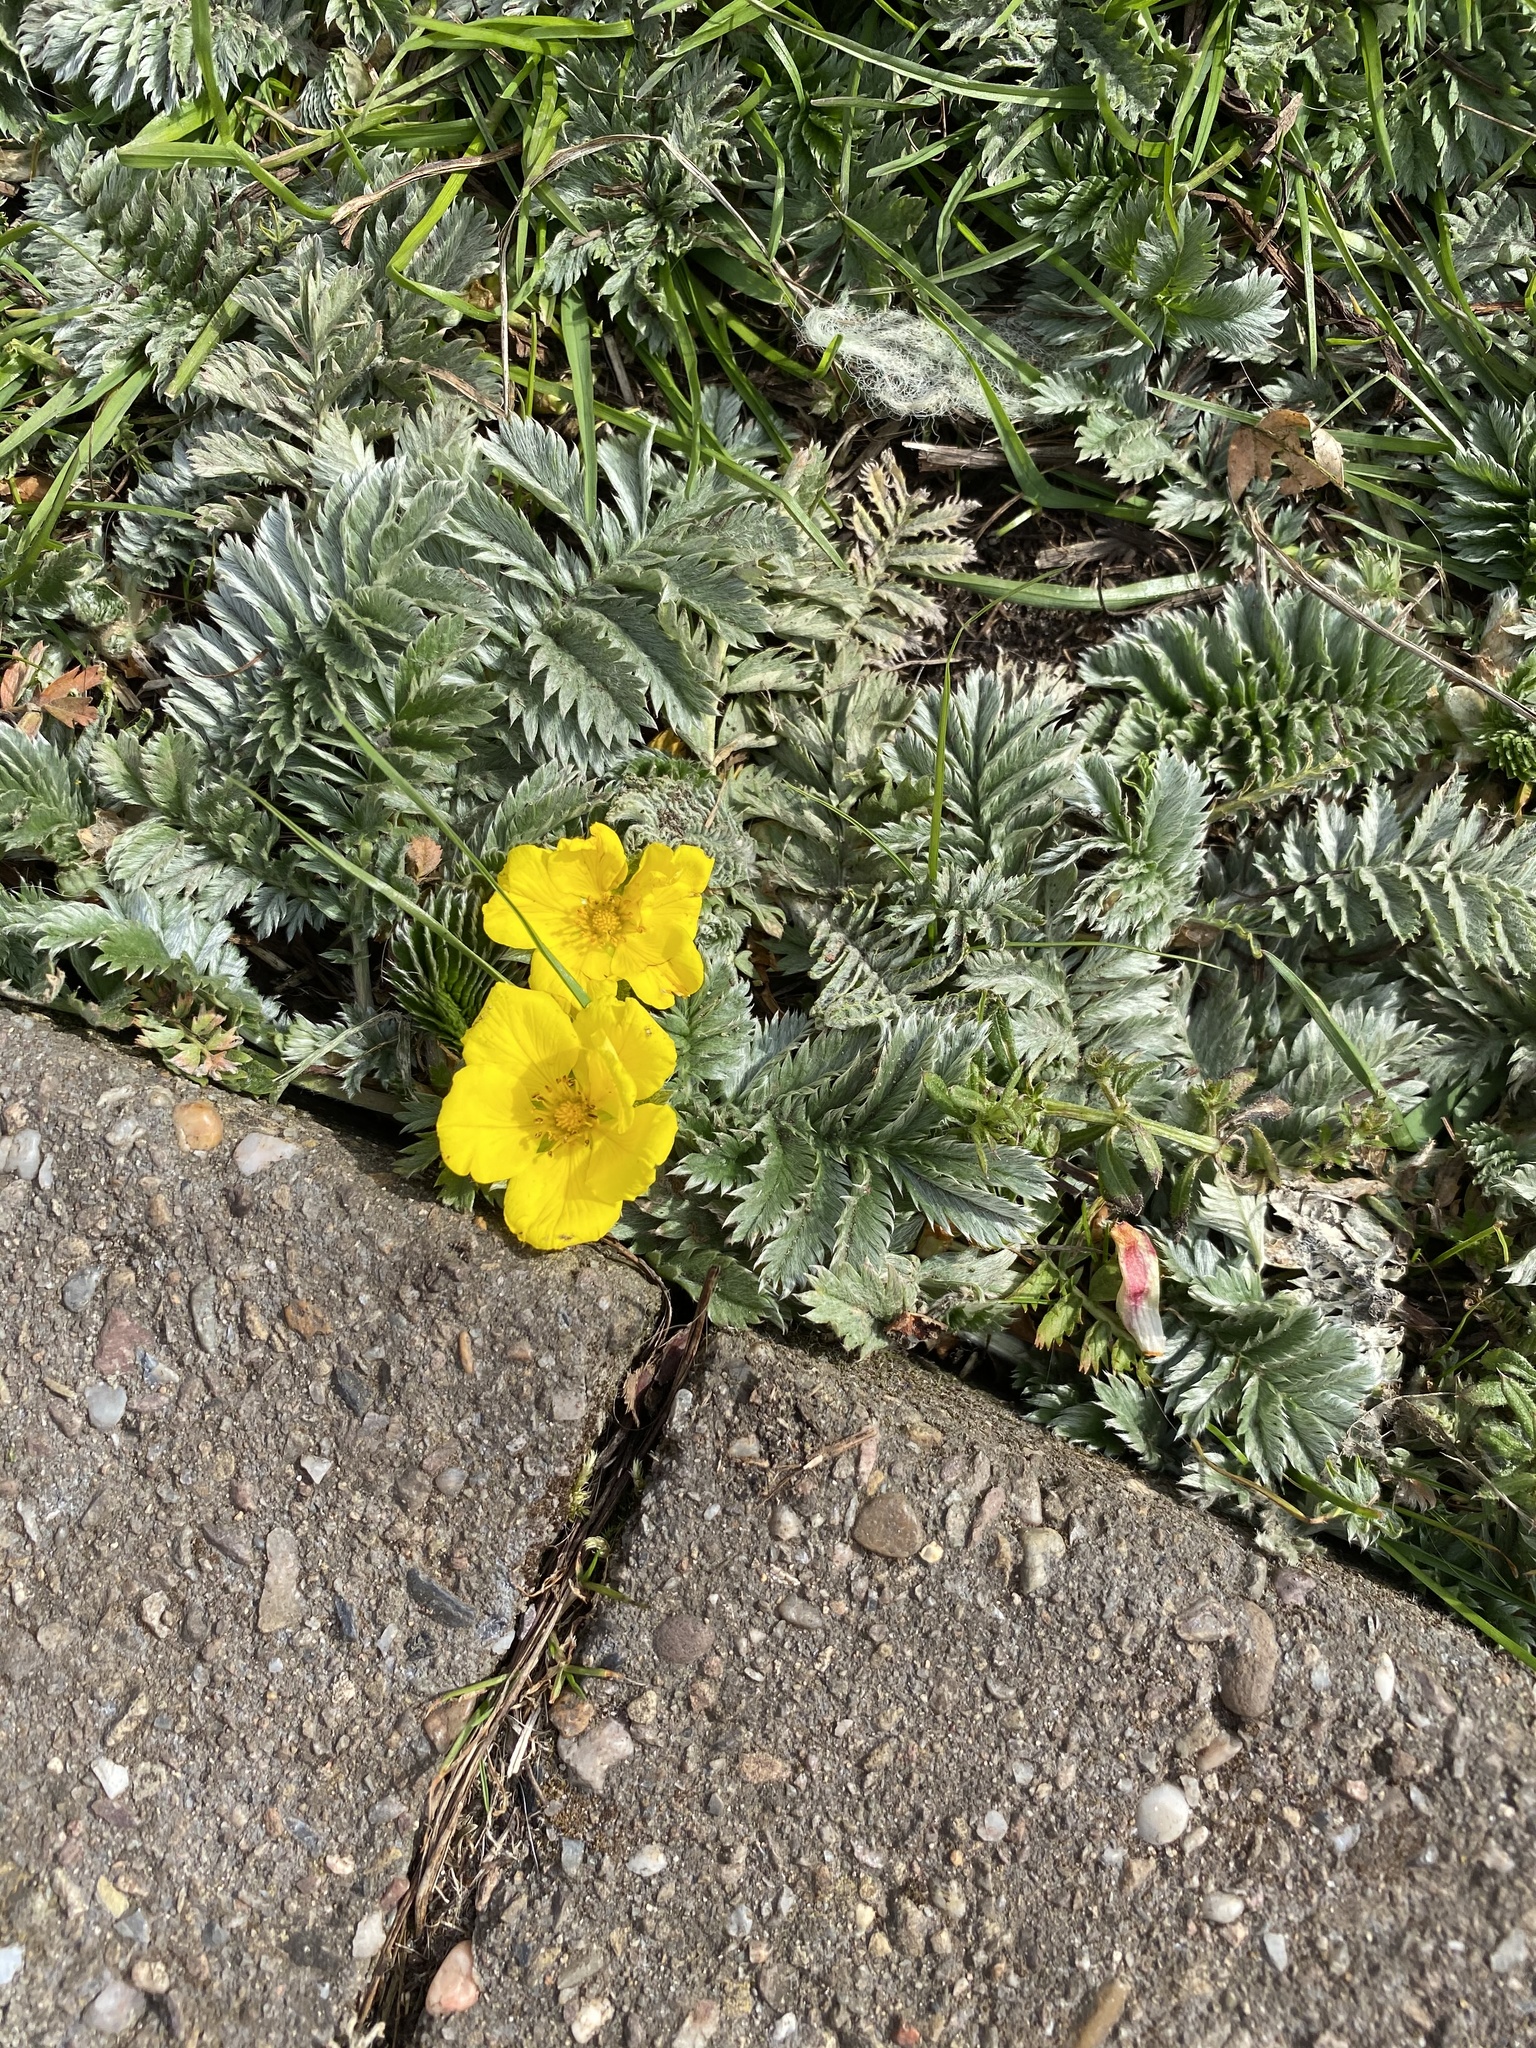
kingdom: Plantae
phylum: Tracheophyta
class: Magnoliopsida
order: Rosales
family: Rosaceae
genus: Argentina
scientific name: Argentina anserina
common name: Common silverweed
